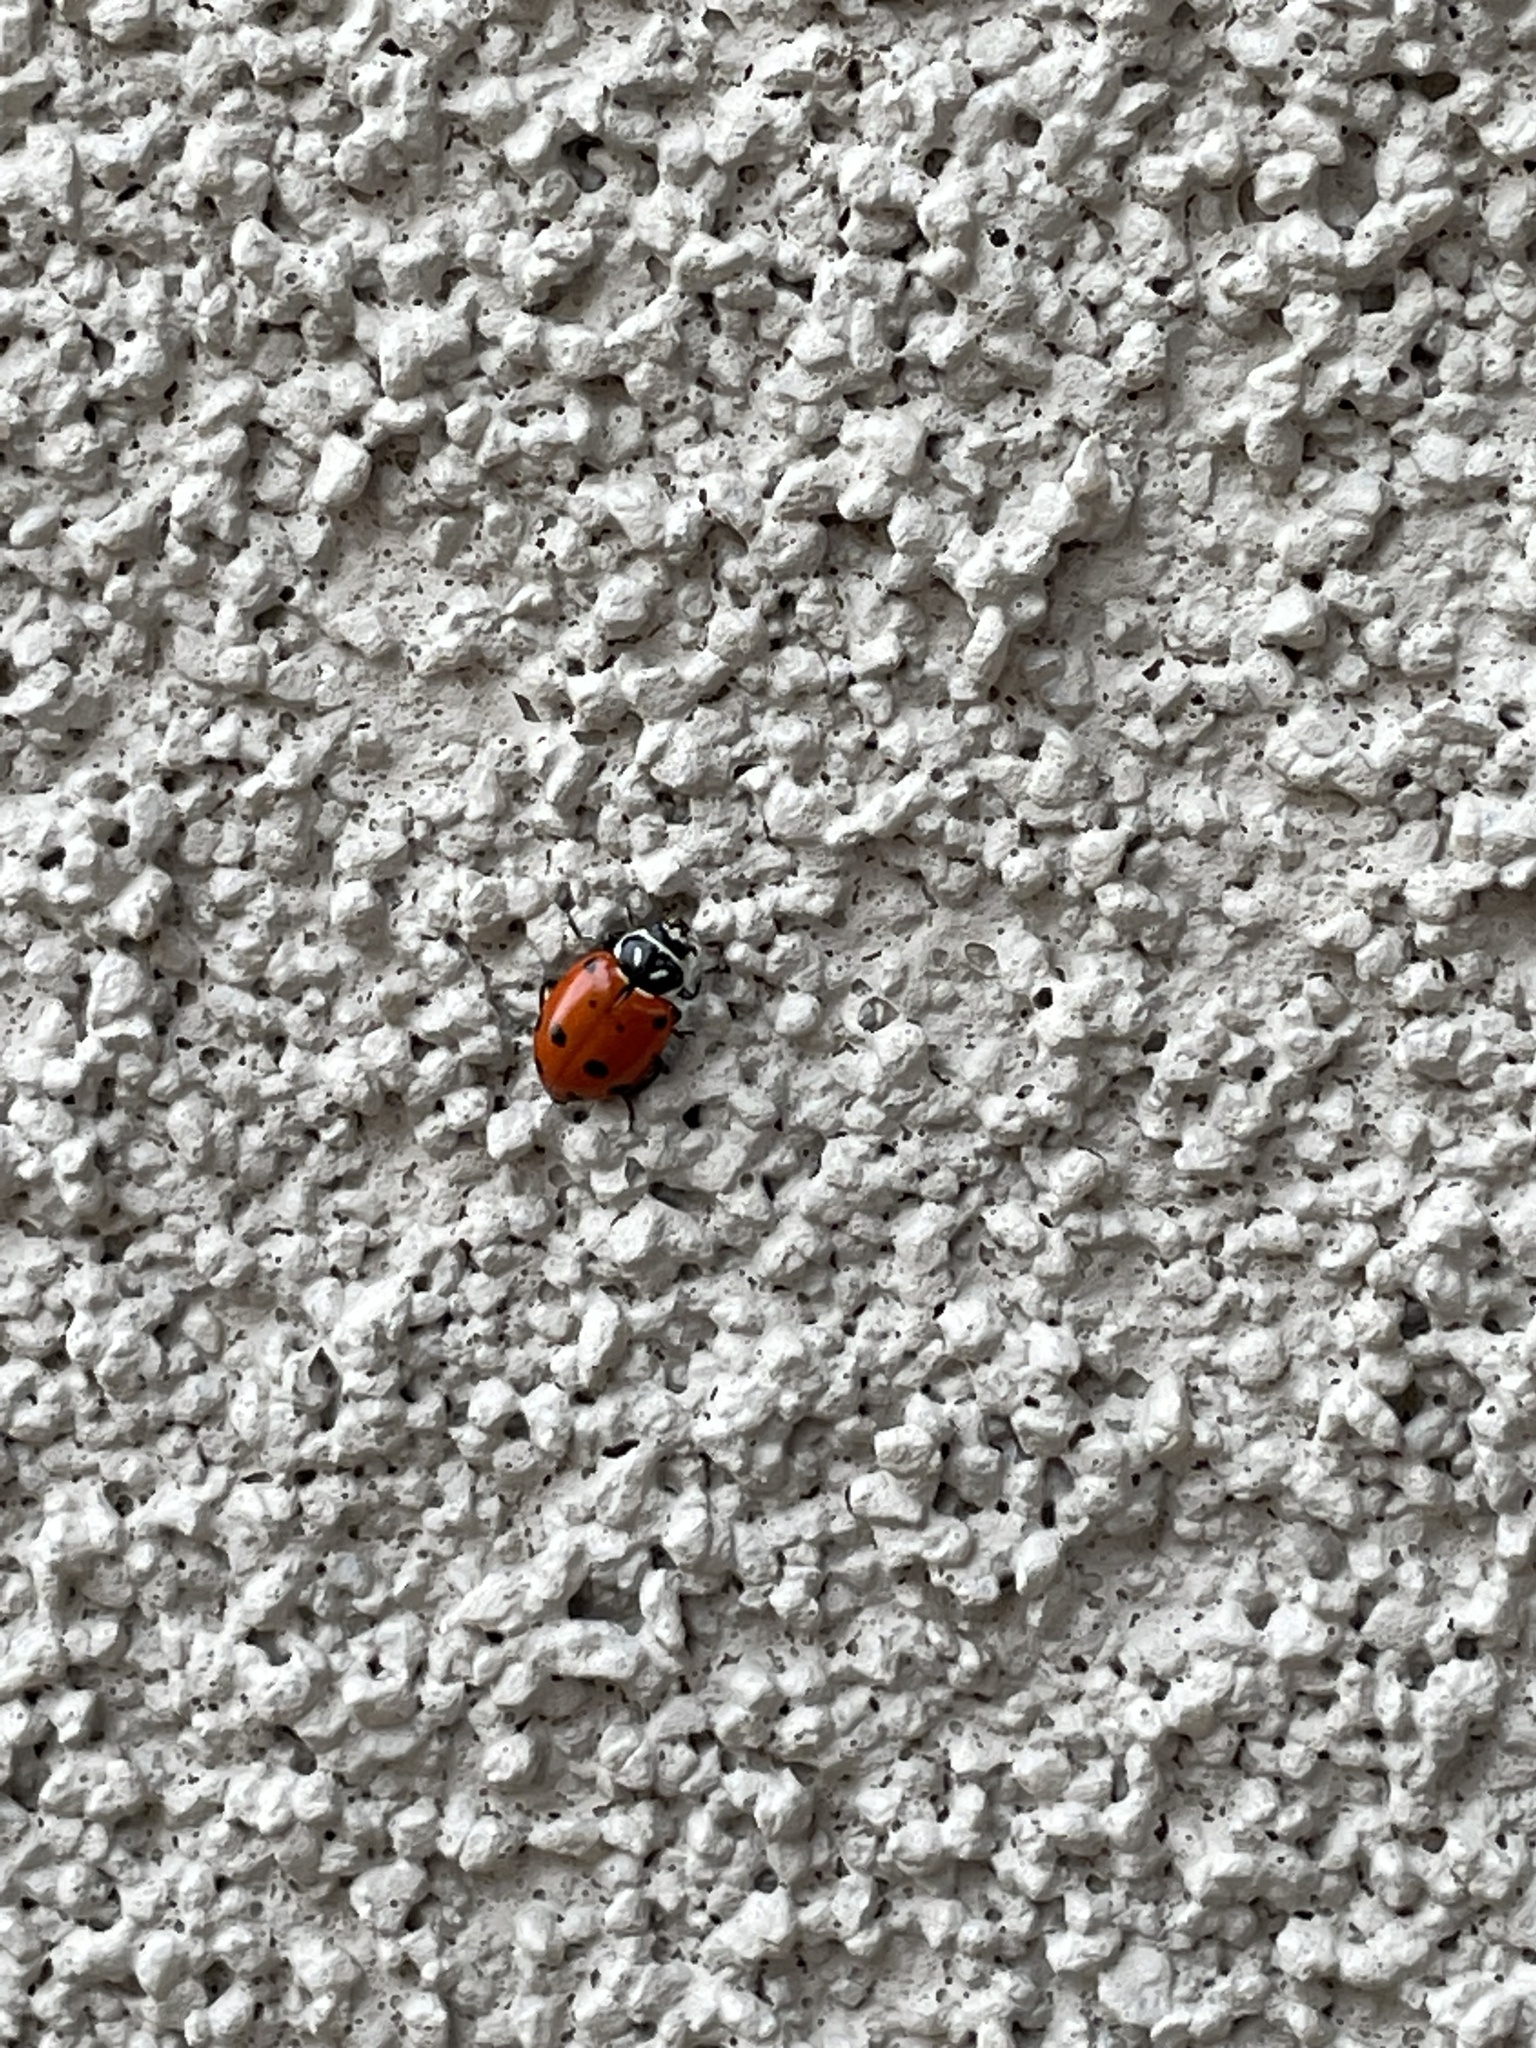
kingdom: Animalia
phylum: Arthropoda
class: Insecta
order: Coleoptera
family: Coccinellidae
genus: Hippodamia
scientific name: Hippodamia convergens
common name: Convergent lady beetle
